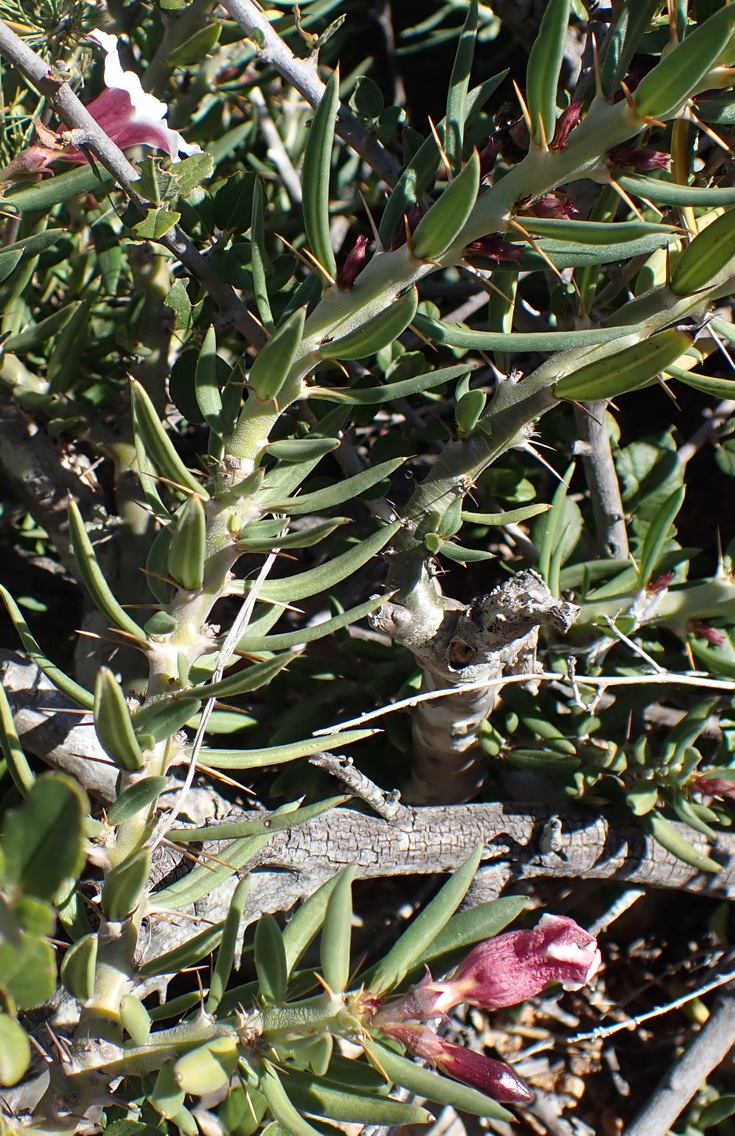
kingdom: Plantae
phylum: Tracheophyta
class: Magnoliopsida
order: Gentianales
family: Apocynaceae
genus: Pachypodium
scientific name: Pachypodium bispinosum
